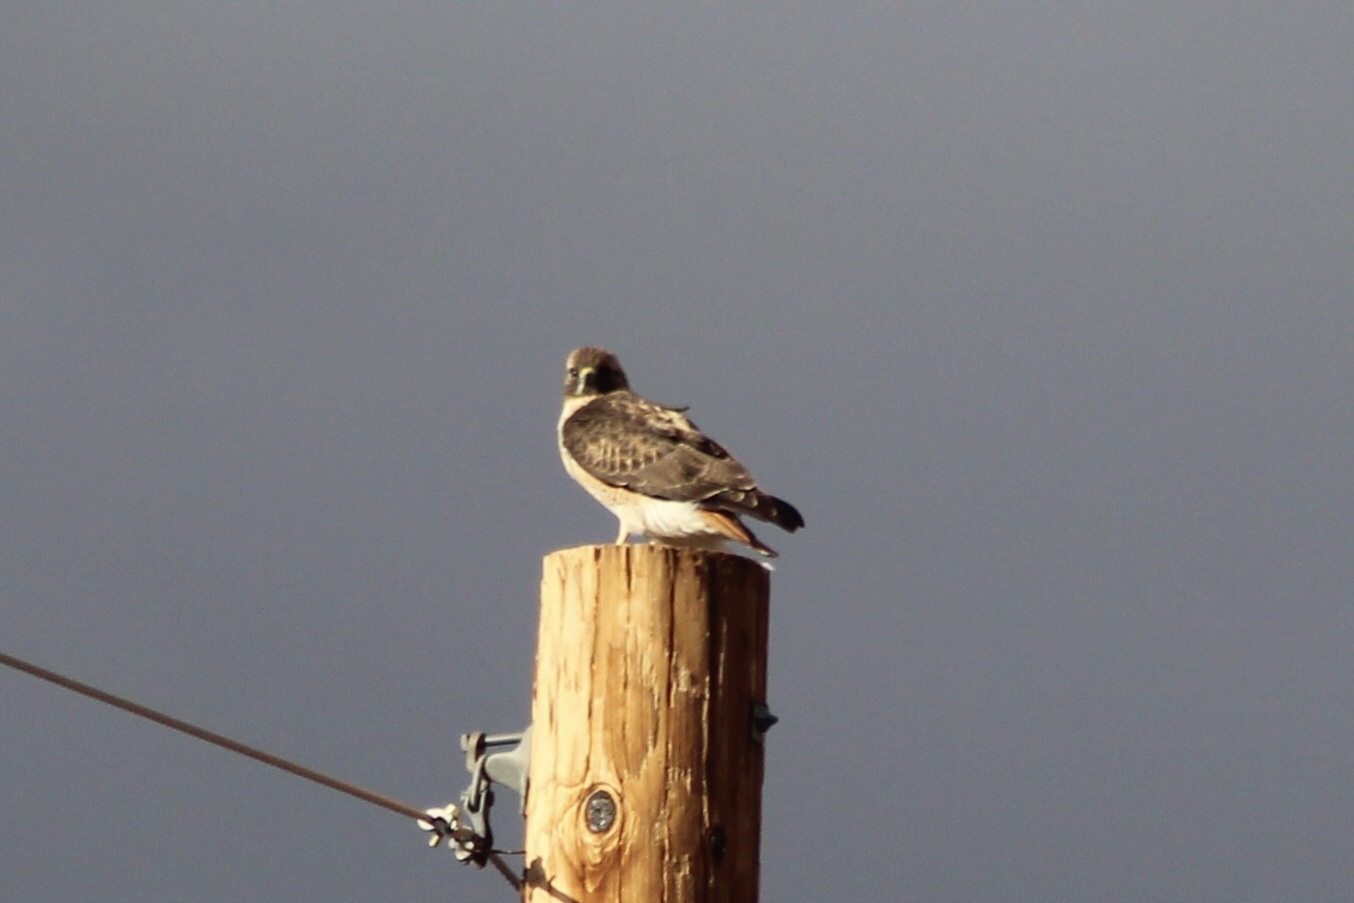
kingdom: Animalia
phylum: Chordata
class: Aves
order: Accipitriformes
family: Accipitridae
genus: Buteo
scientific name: Buteo jamaicensis
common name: Red-tailed hawk
